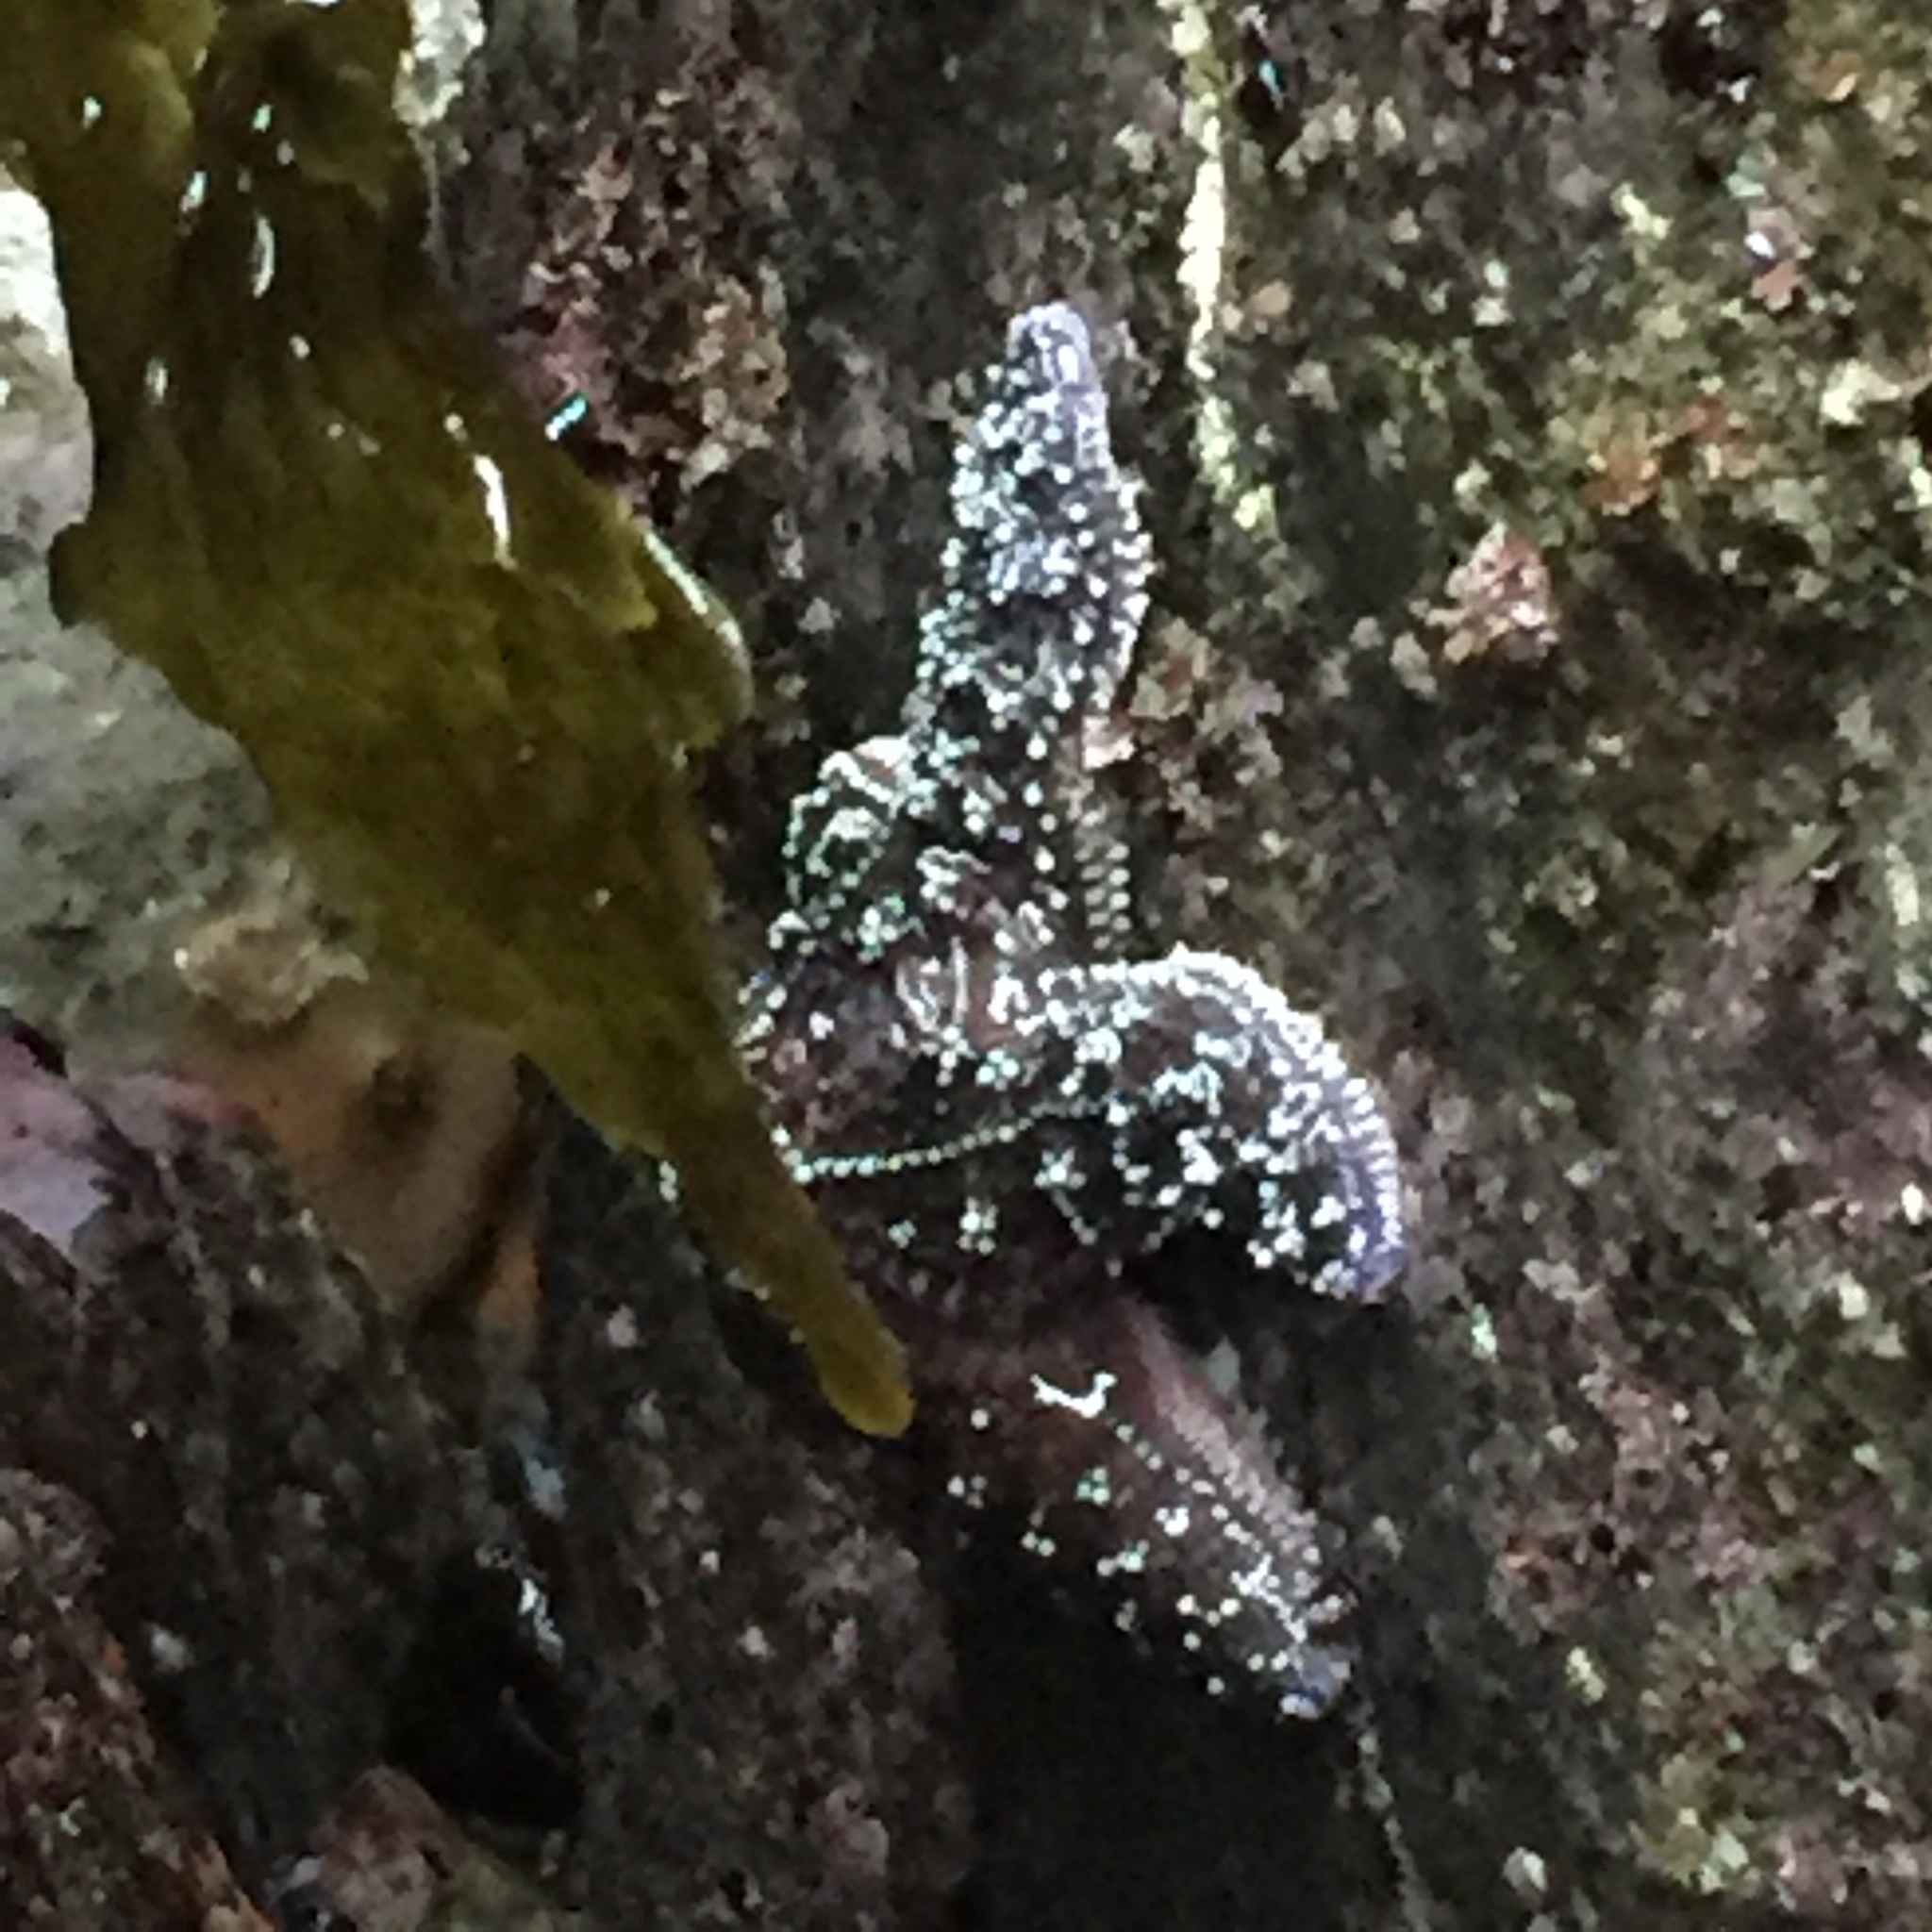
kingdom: Animalia
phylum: Echinodermata
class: Asteroidea
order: Forcipulatida
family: Asteriidae
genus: Pisaster
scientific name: Pisaster ochraceus
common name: Ochre stars
